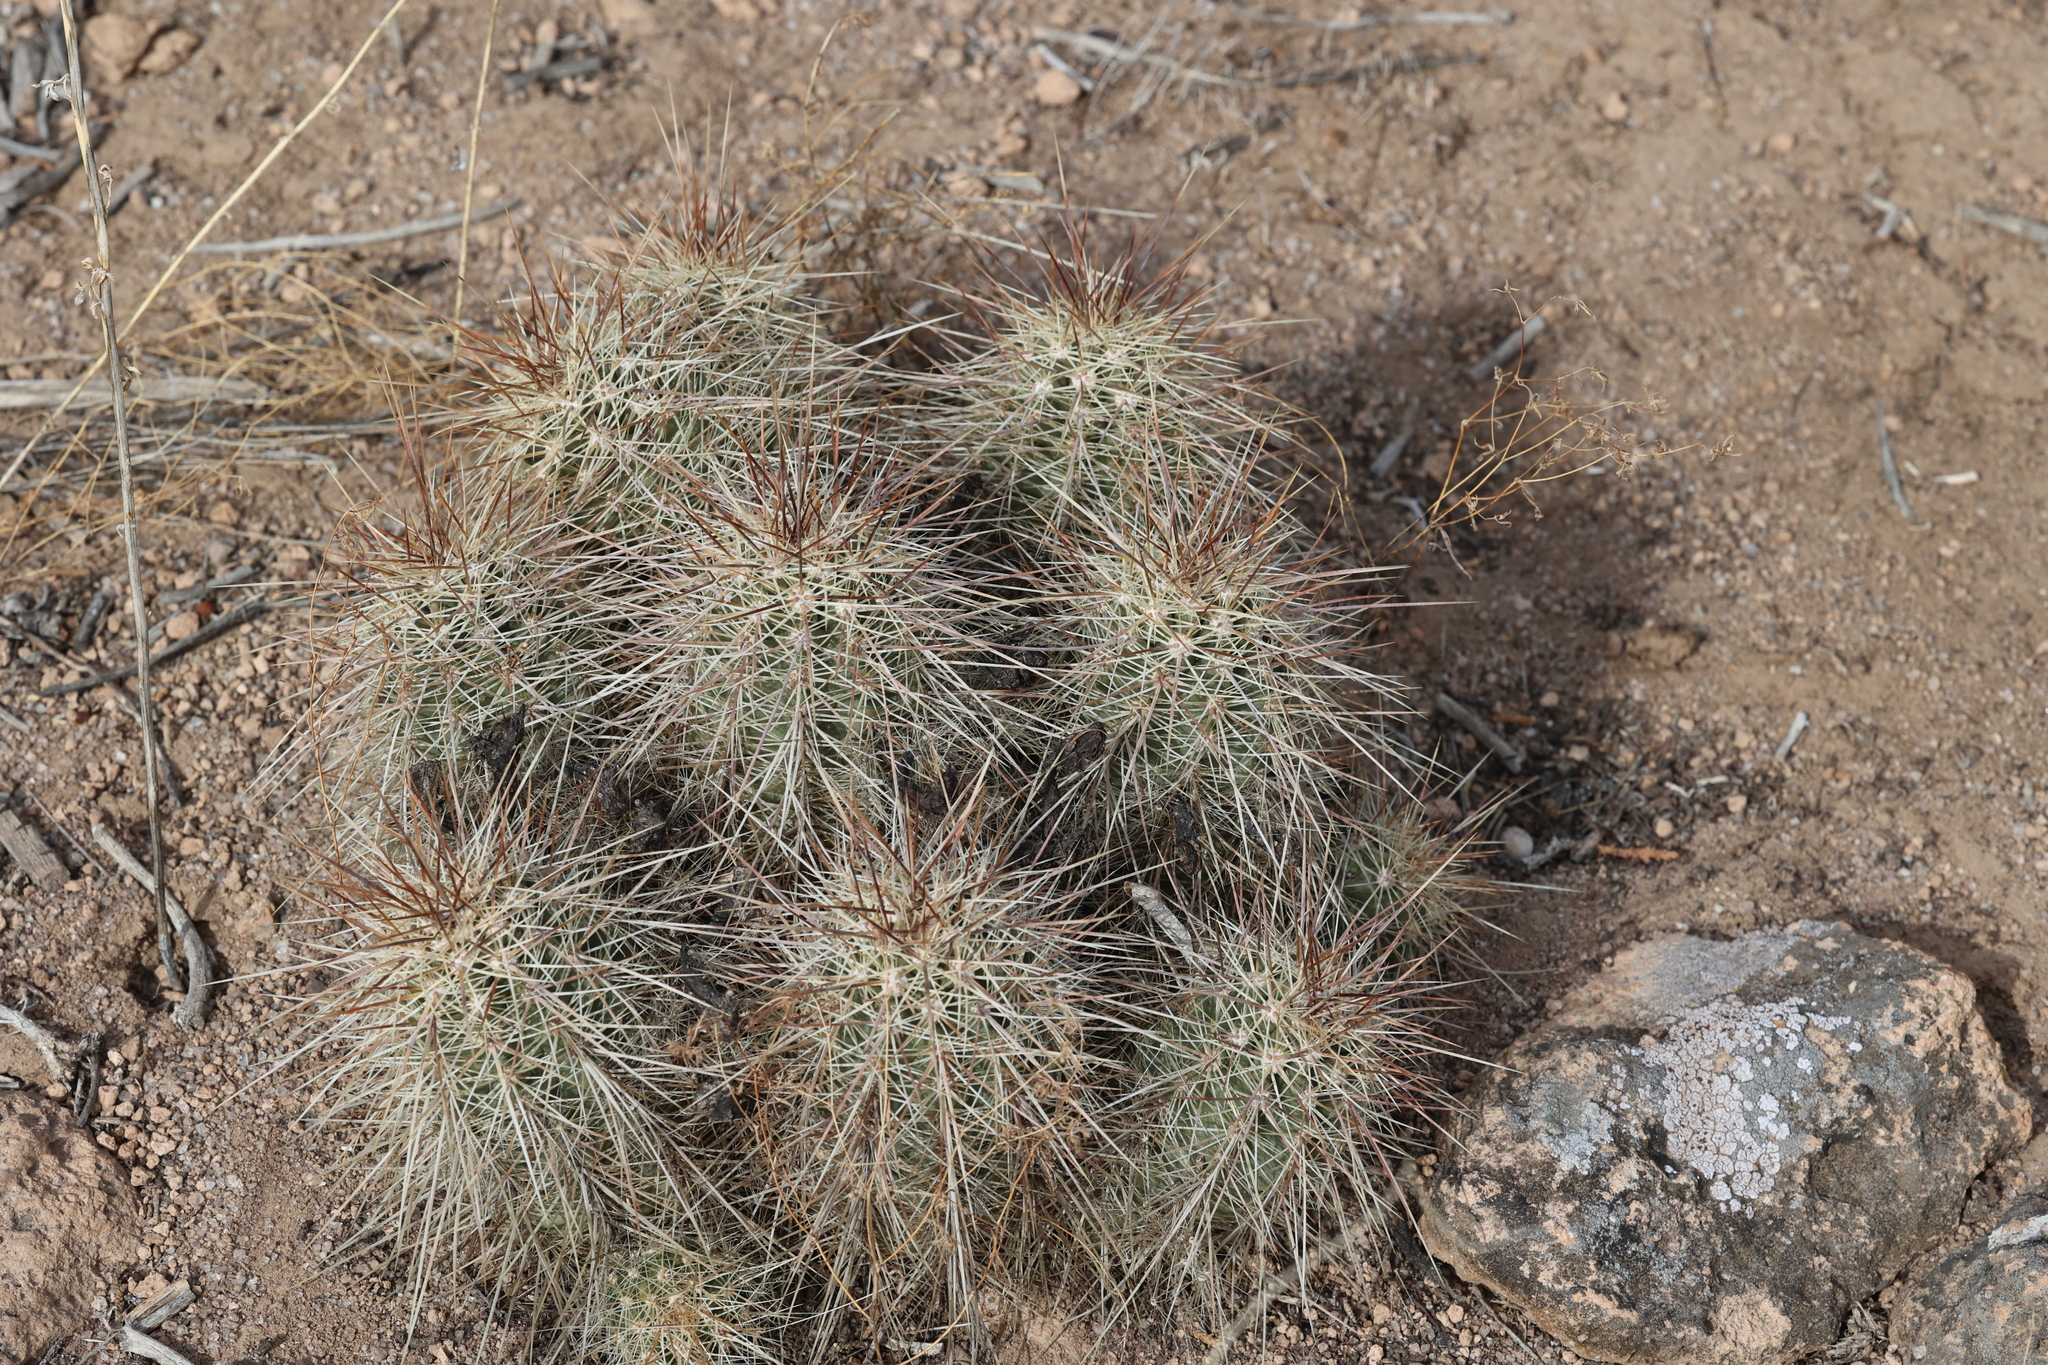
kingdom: Plantae
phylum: Tracheophyta
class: Magnoliopsida
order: Caryophyllales
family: Cactaceae
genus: Echinocereus
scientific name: Echinocereus coccineus
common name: Scarlet hedgehog cactus
